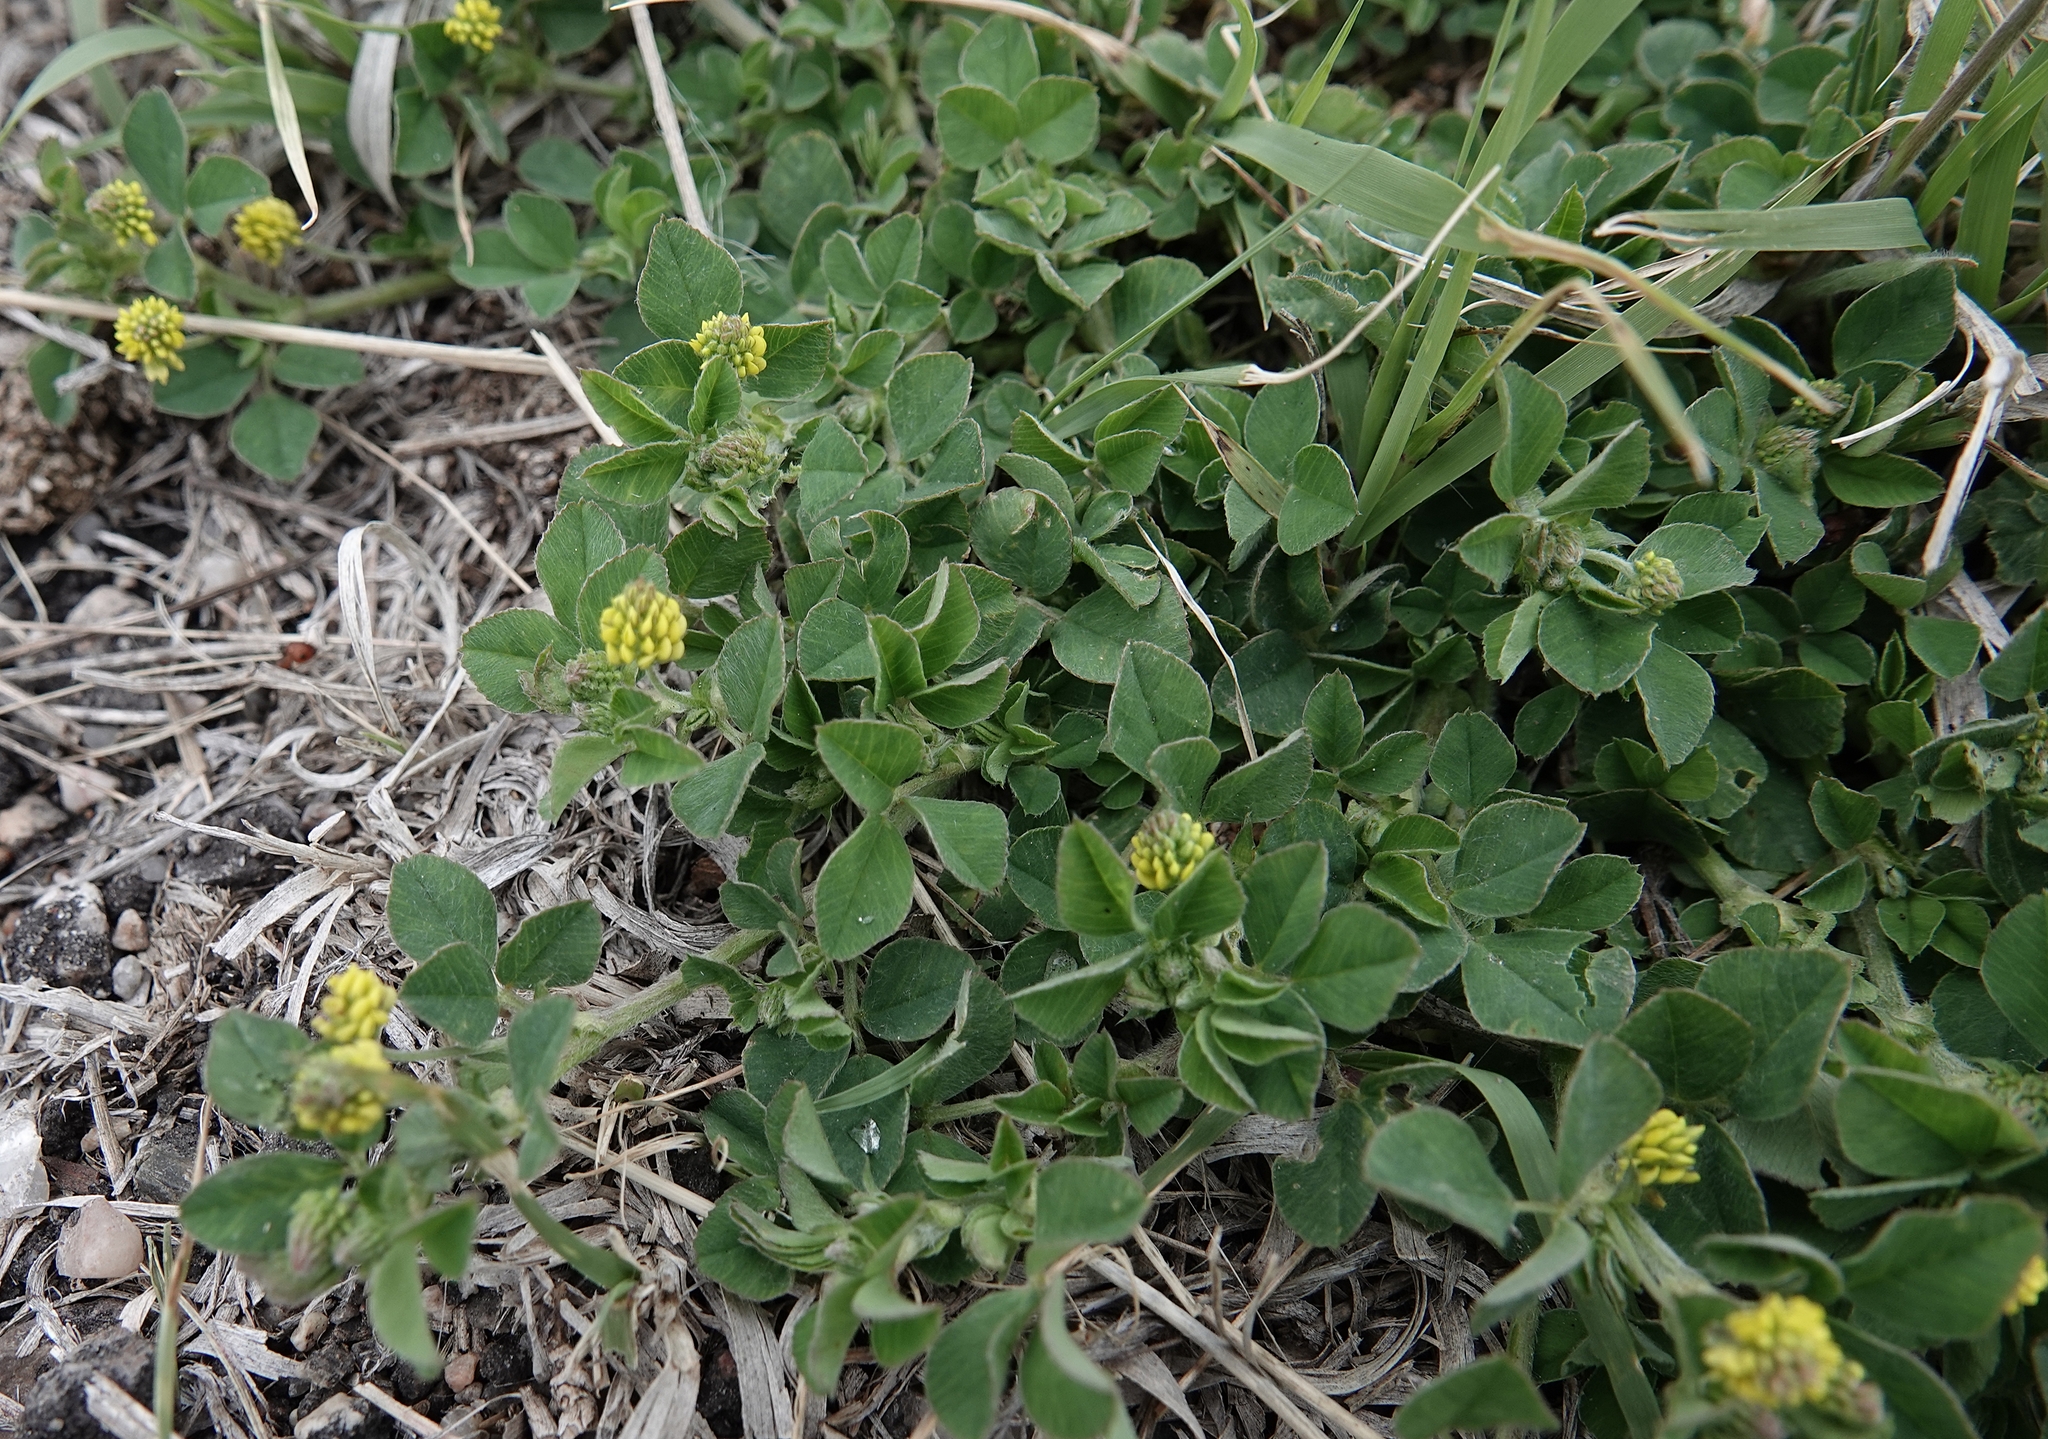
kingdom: Plantae
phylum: Tracheophyta
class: Magnoliopsida
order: Fabales
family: Fabaceae
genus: Medicago
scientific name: Medicago lupulina
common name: Black medick
